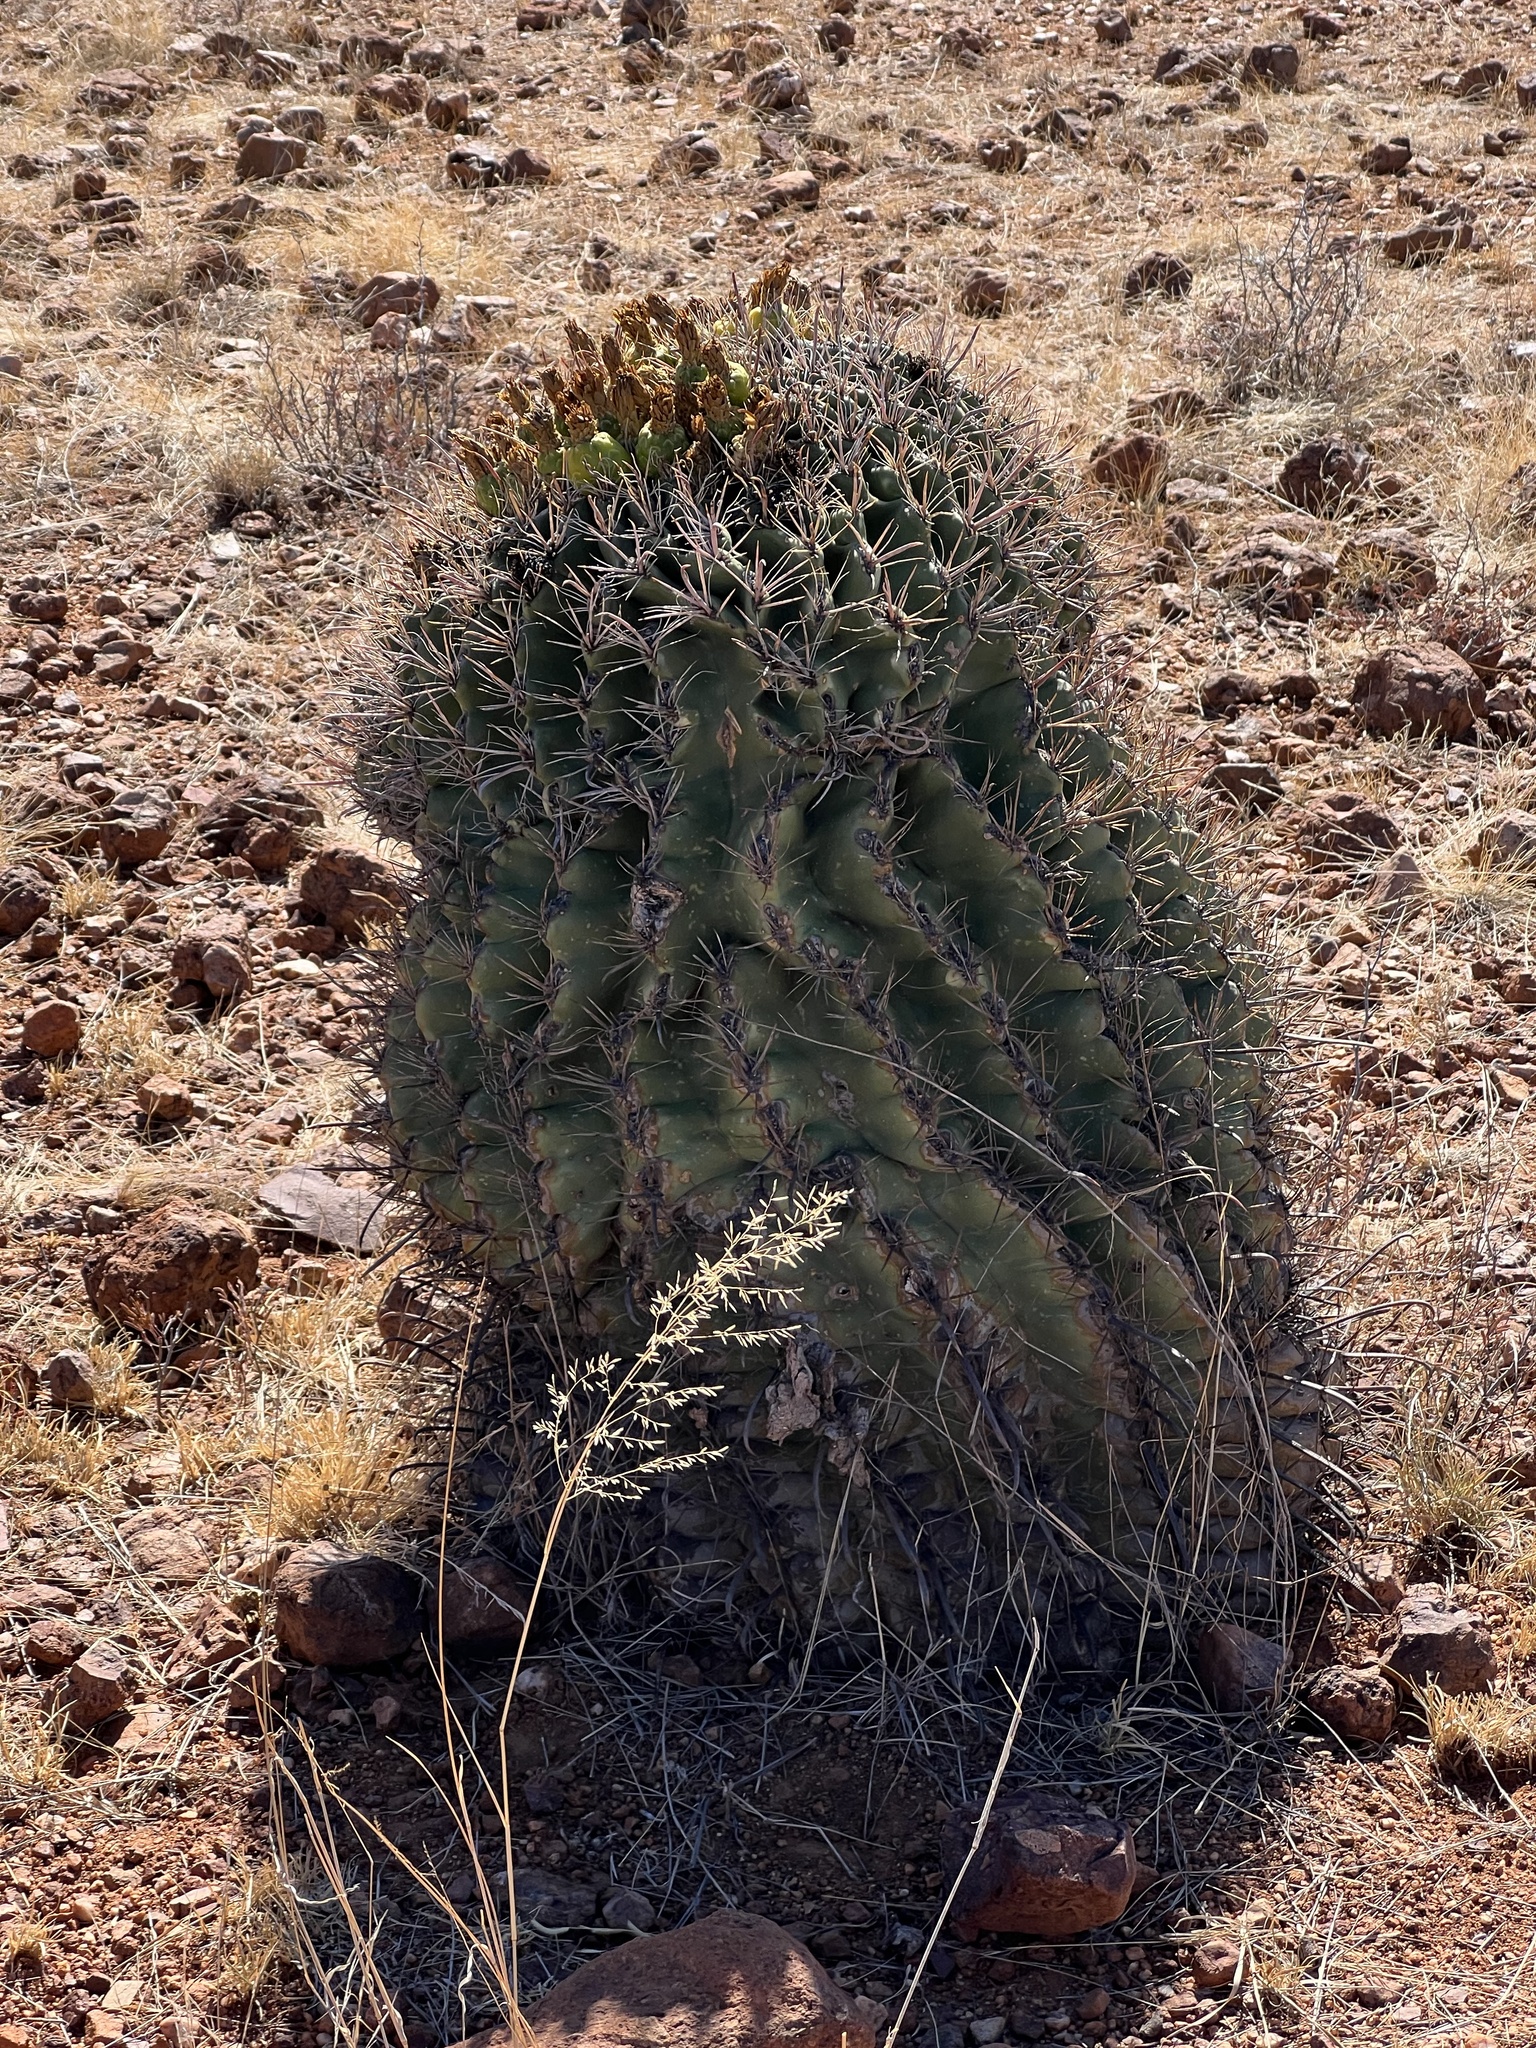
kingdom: Plantae
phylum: Tracheophyta
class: Magnoliopsida
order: Caryophyllales
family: Cactaceae
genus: Ferocactus
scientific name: Ferocactus wislizeni
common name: Candy barrel cactus
